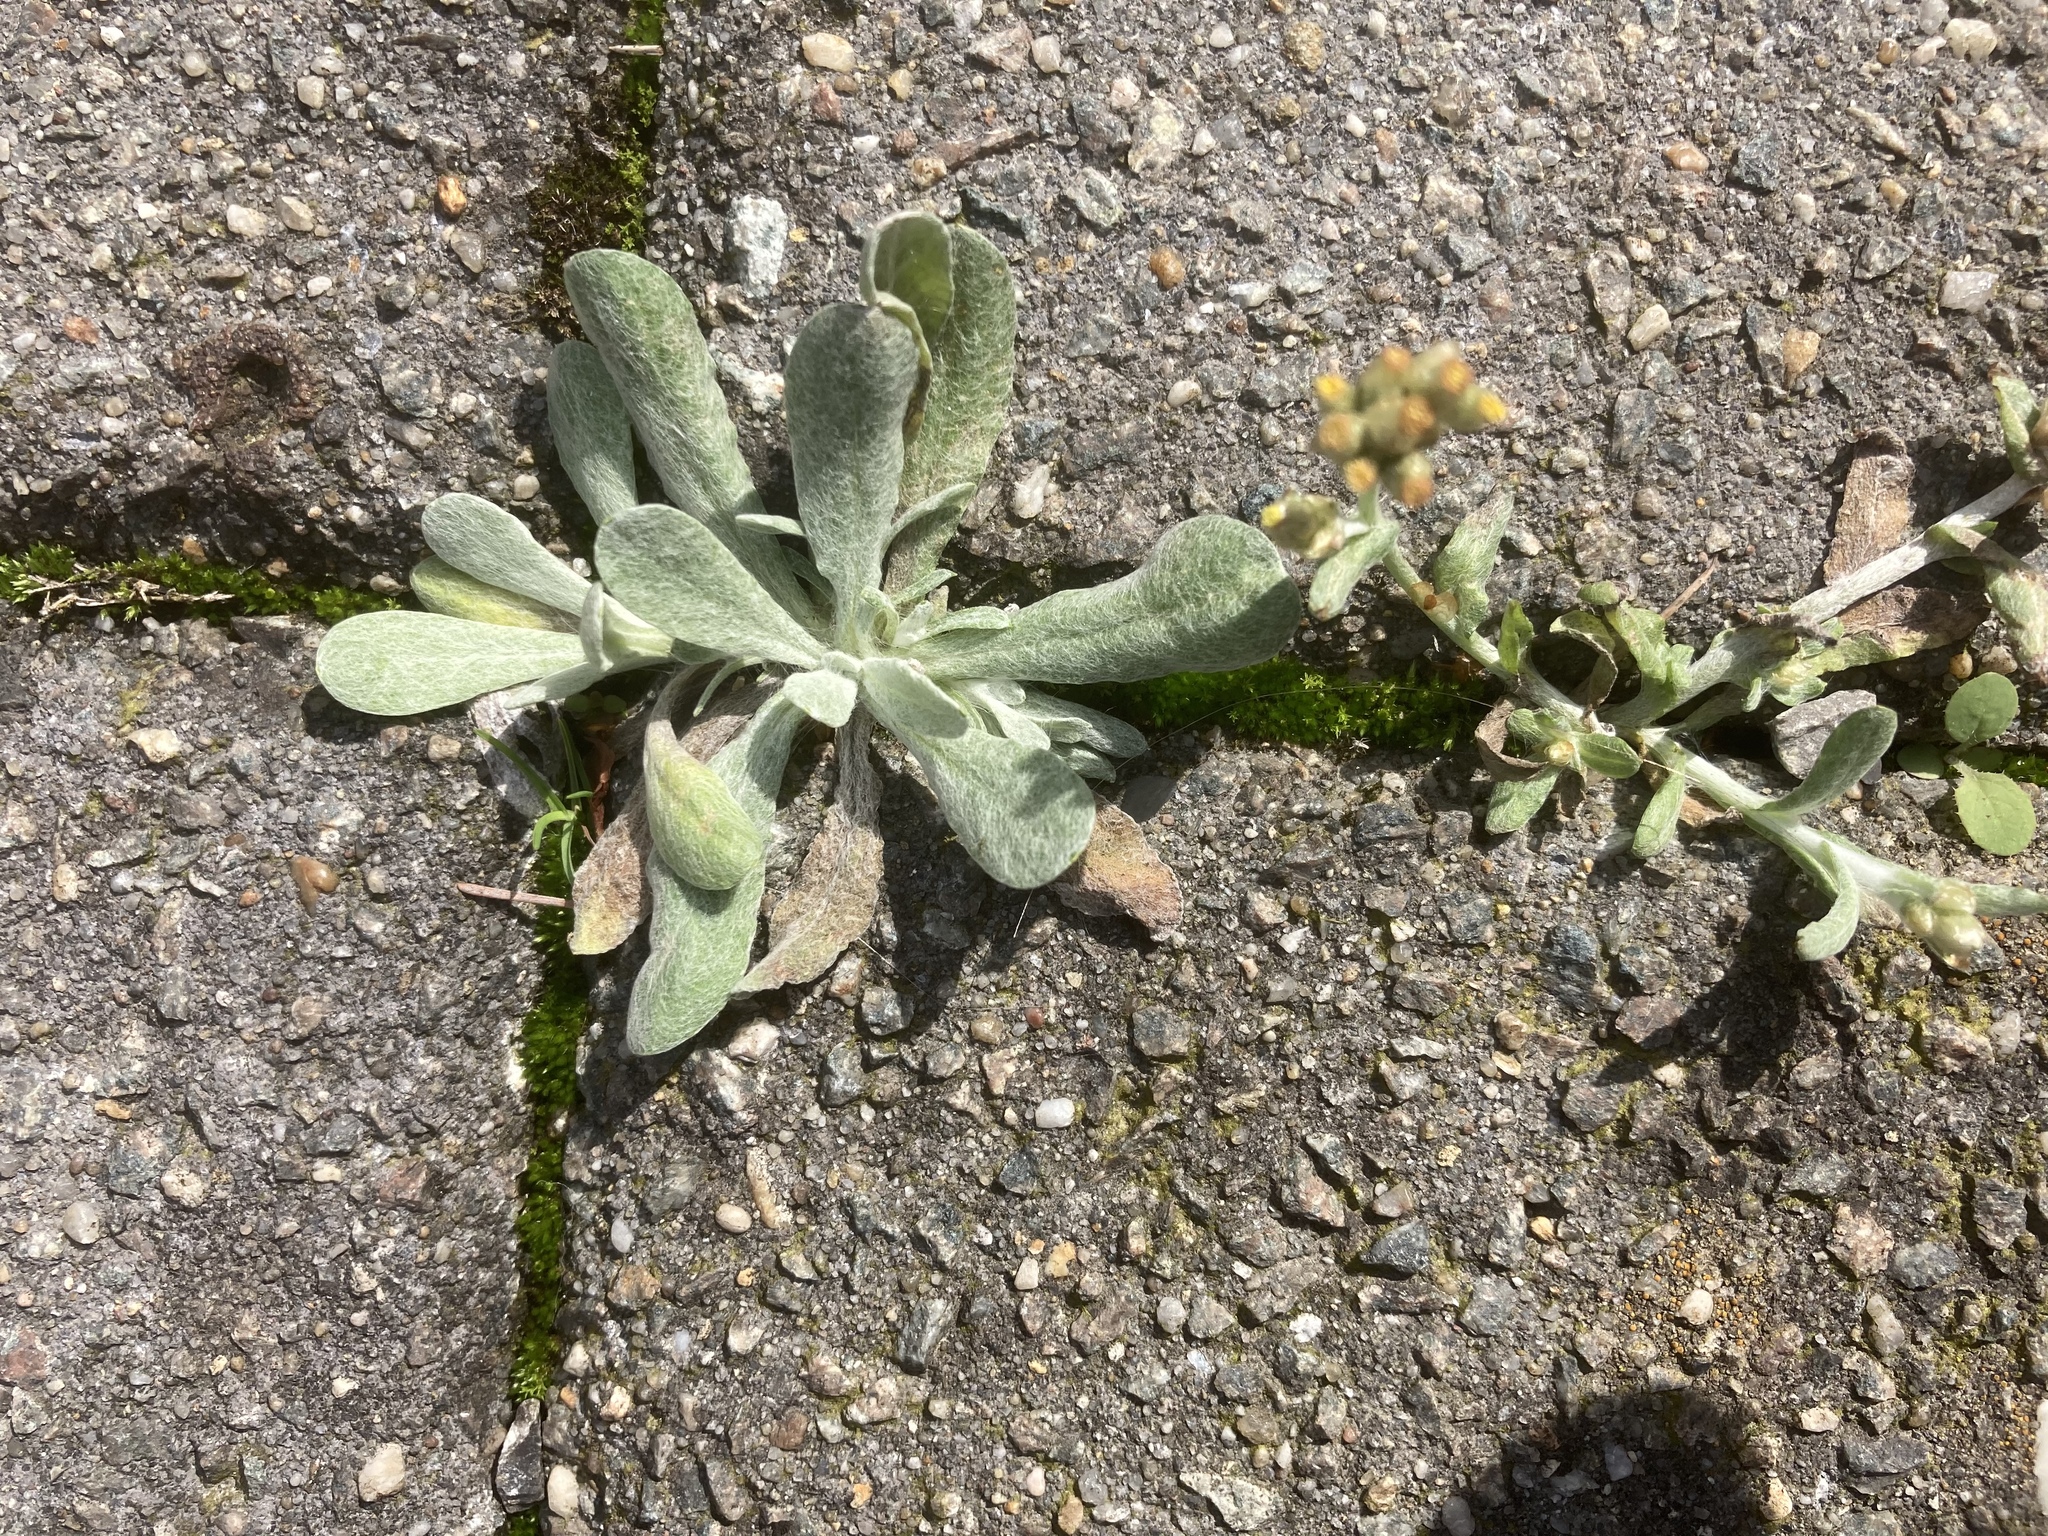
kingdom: Plantae
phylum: Tracheophyta
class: Magnoliopsida
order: Asterales
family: Asteraceae
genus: Helichrysum
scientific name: Helichrysum luteoalbum
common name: Daisy
